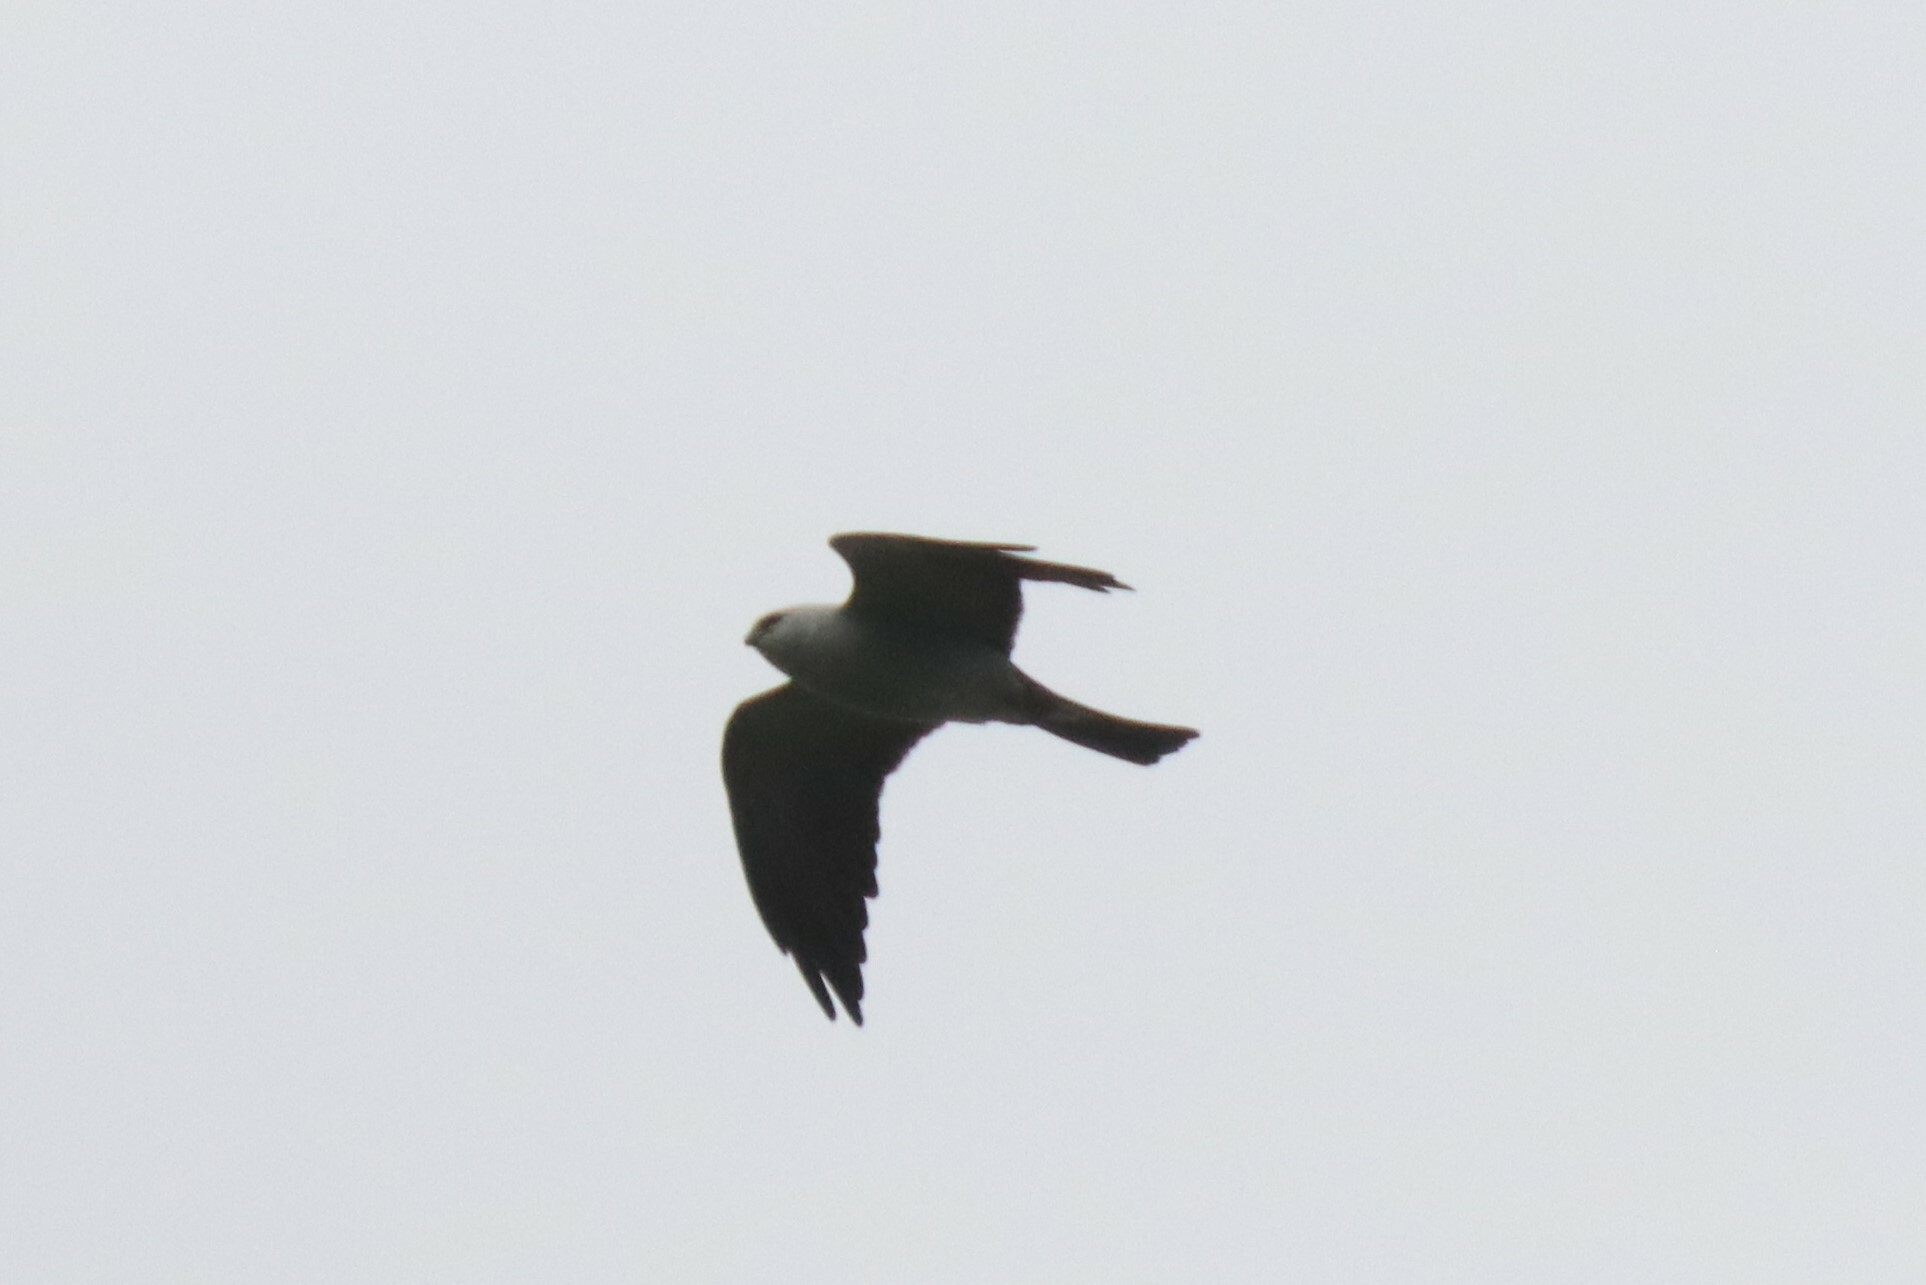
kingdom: Animalia
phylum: Chordata
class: Aves
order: Accipitriformes
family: Accipitridae
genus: Ictinia
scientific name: Ictinia mississippiensis
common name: Mississippi kite
